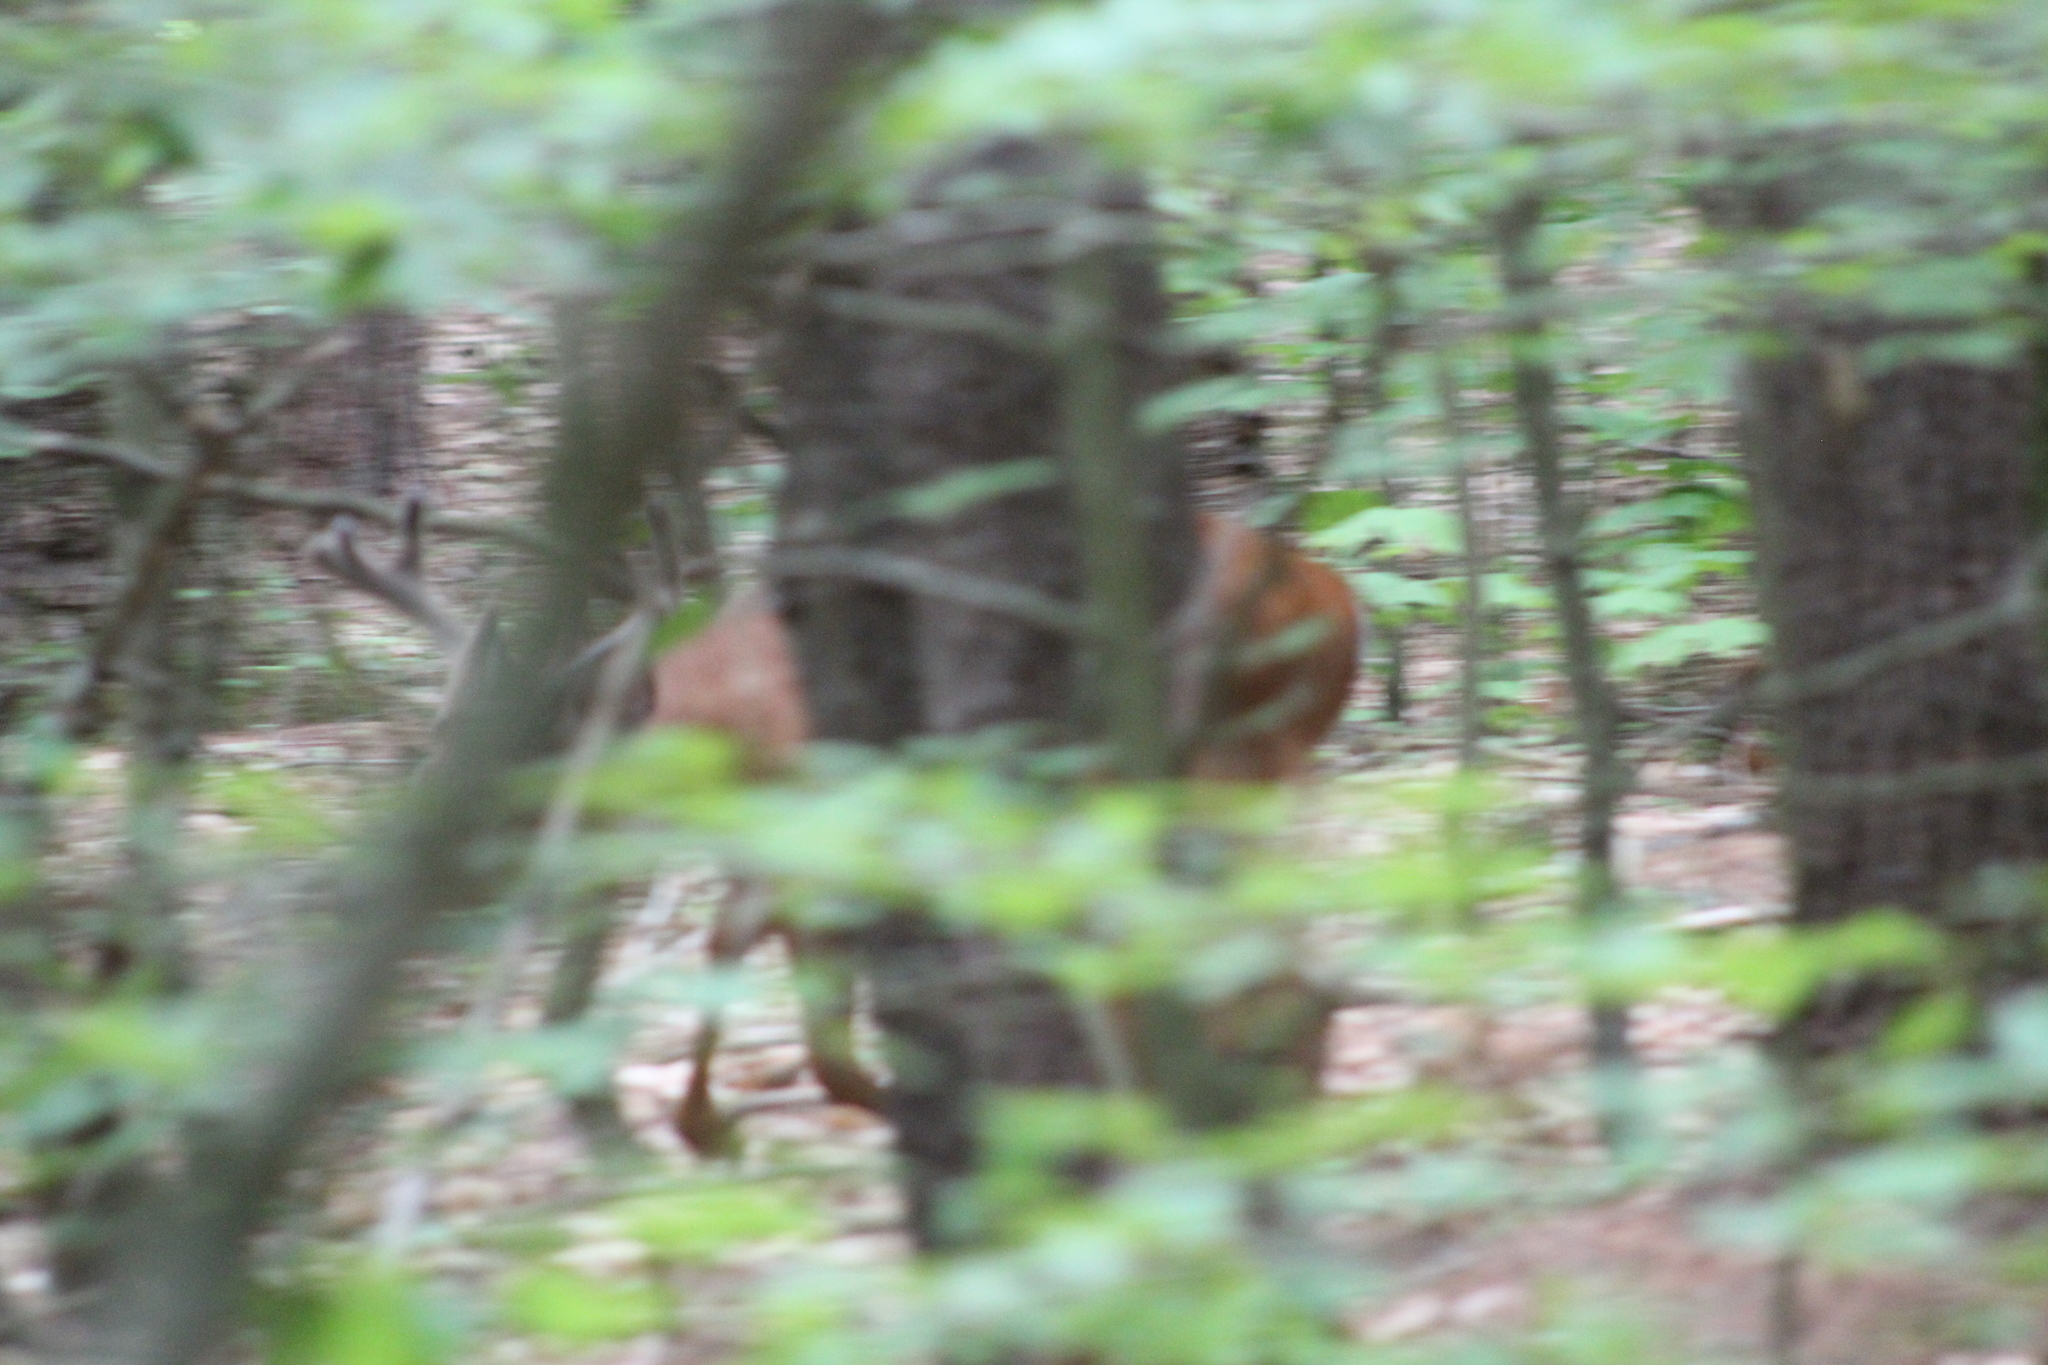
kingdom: Animalia
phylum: Chordata
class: Mammalia
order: Artiodactyla
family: Cervidae
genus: Odocoileus
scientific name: Odocoileus virginianus
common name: White-tailed deer
